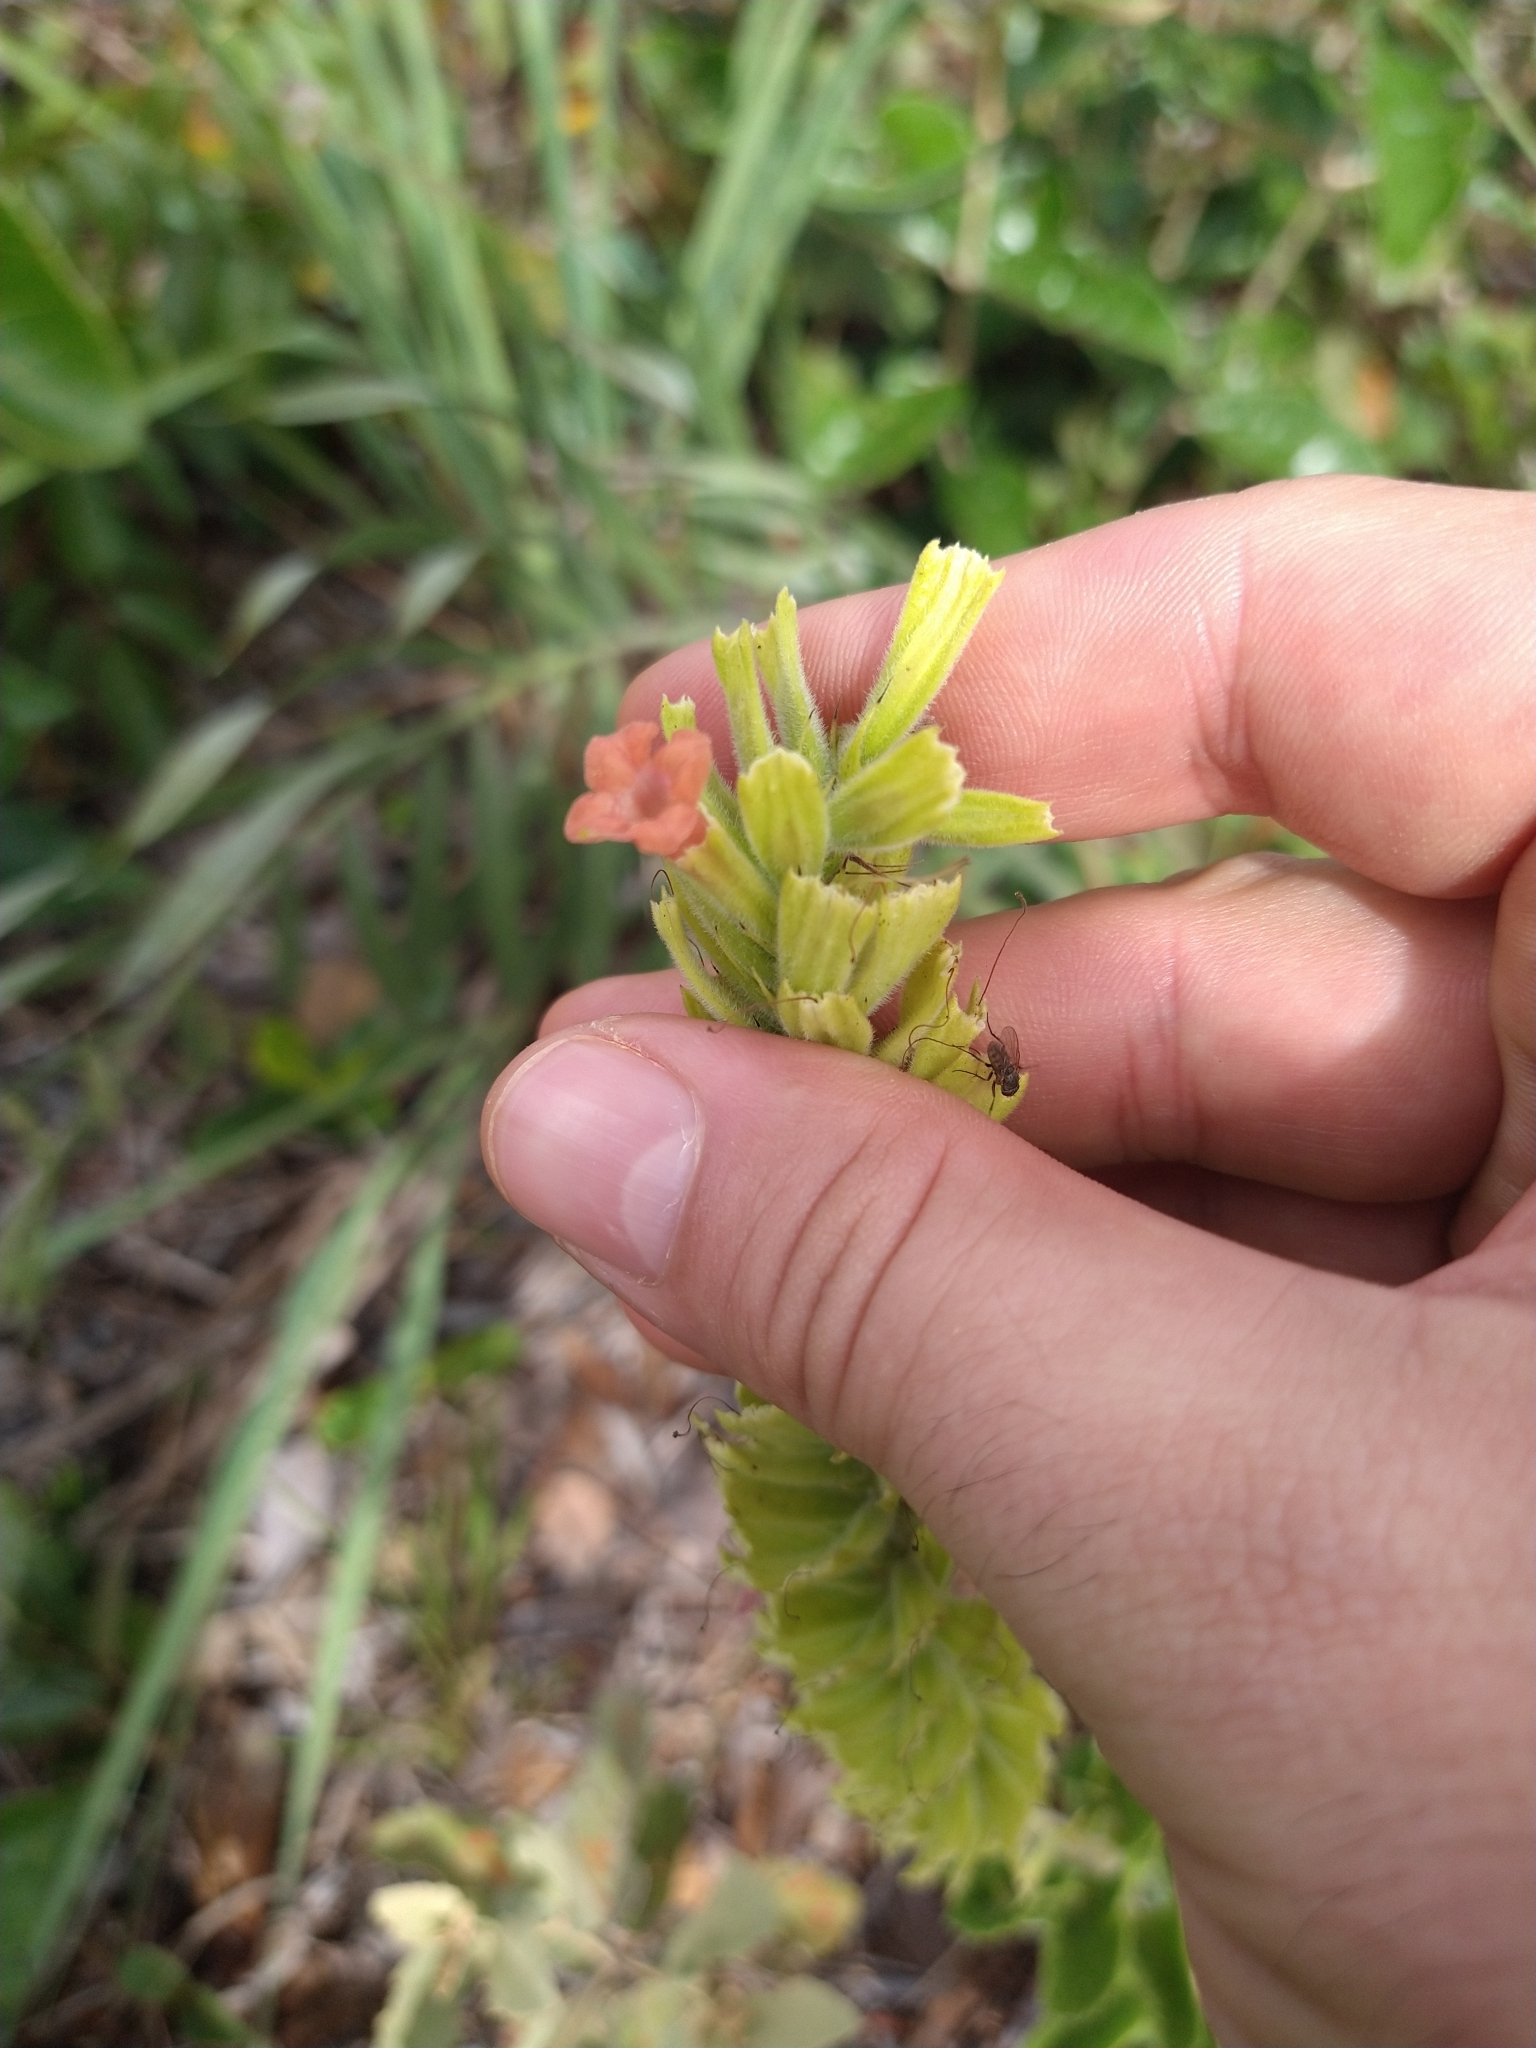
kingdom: Plantae
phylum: Tracheophyta
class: Magnoliopsida
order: Lamiales
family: Verbenaceae
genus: Stachytarpheta
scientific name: Stachytarpheta longispicata
